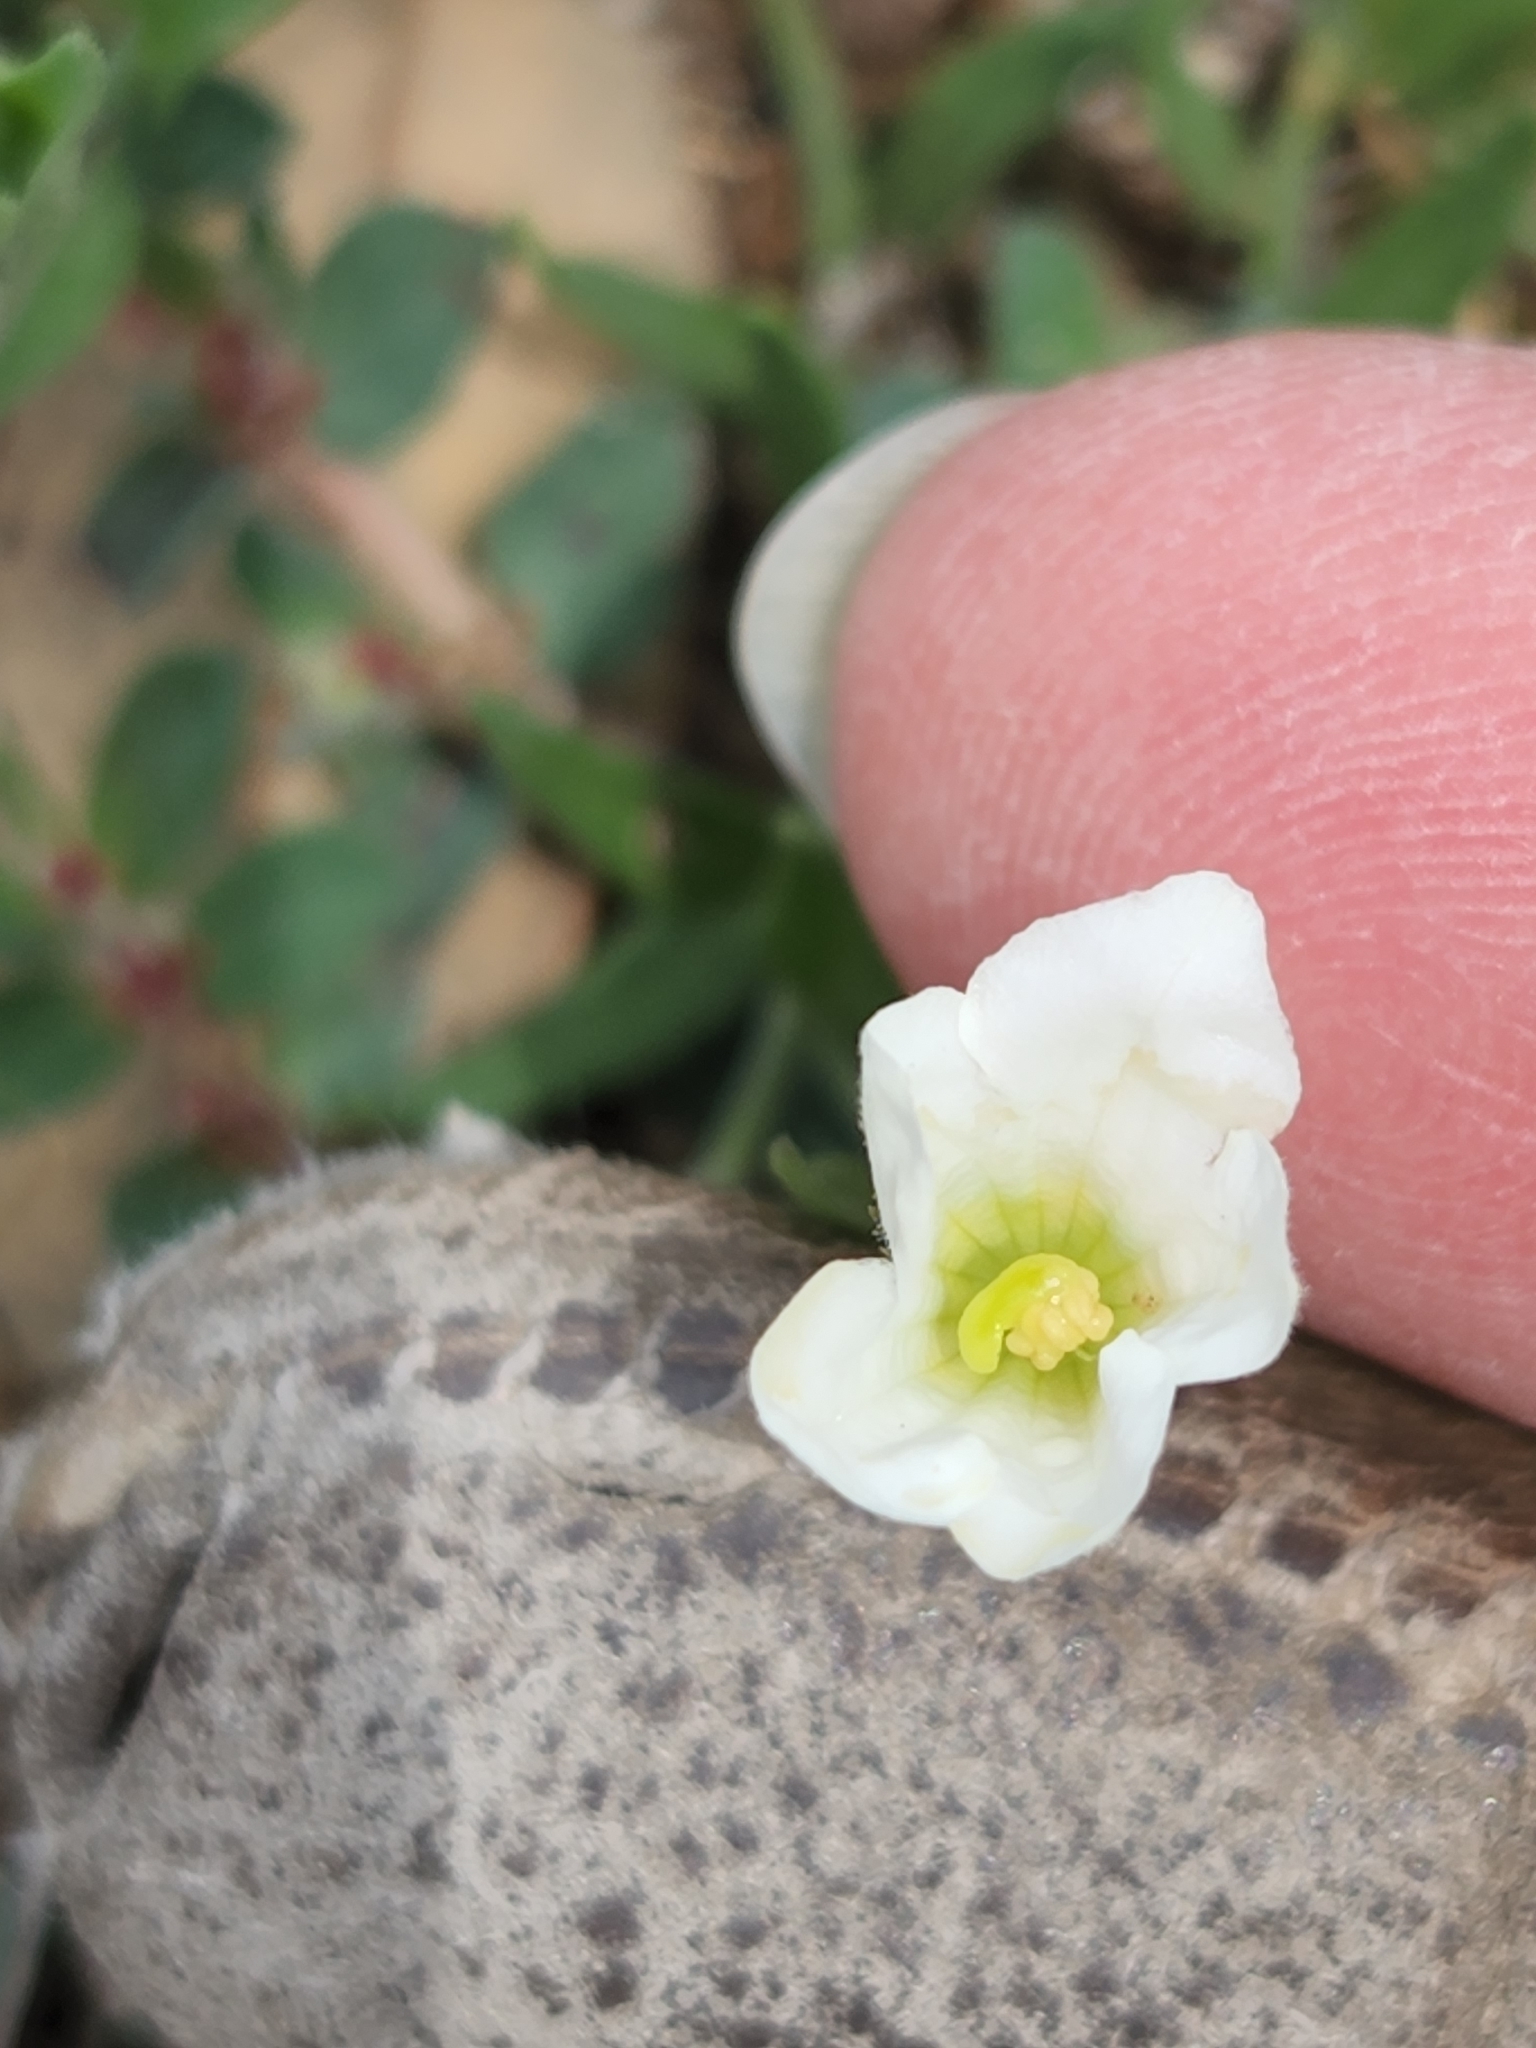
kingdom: Plantae
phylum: Tracheophyta
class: Magnoliopsida
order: Solanales
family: Solanaceae
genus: Salpiglossis
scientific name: Salpiglossis erecta
